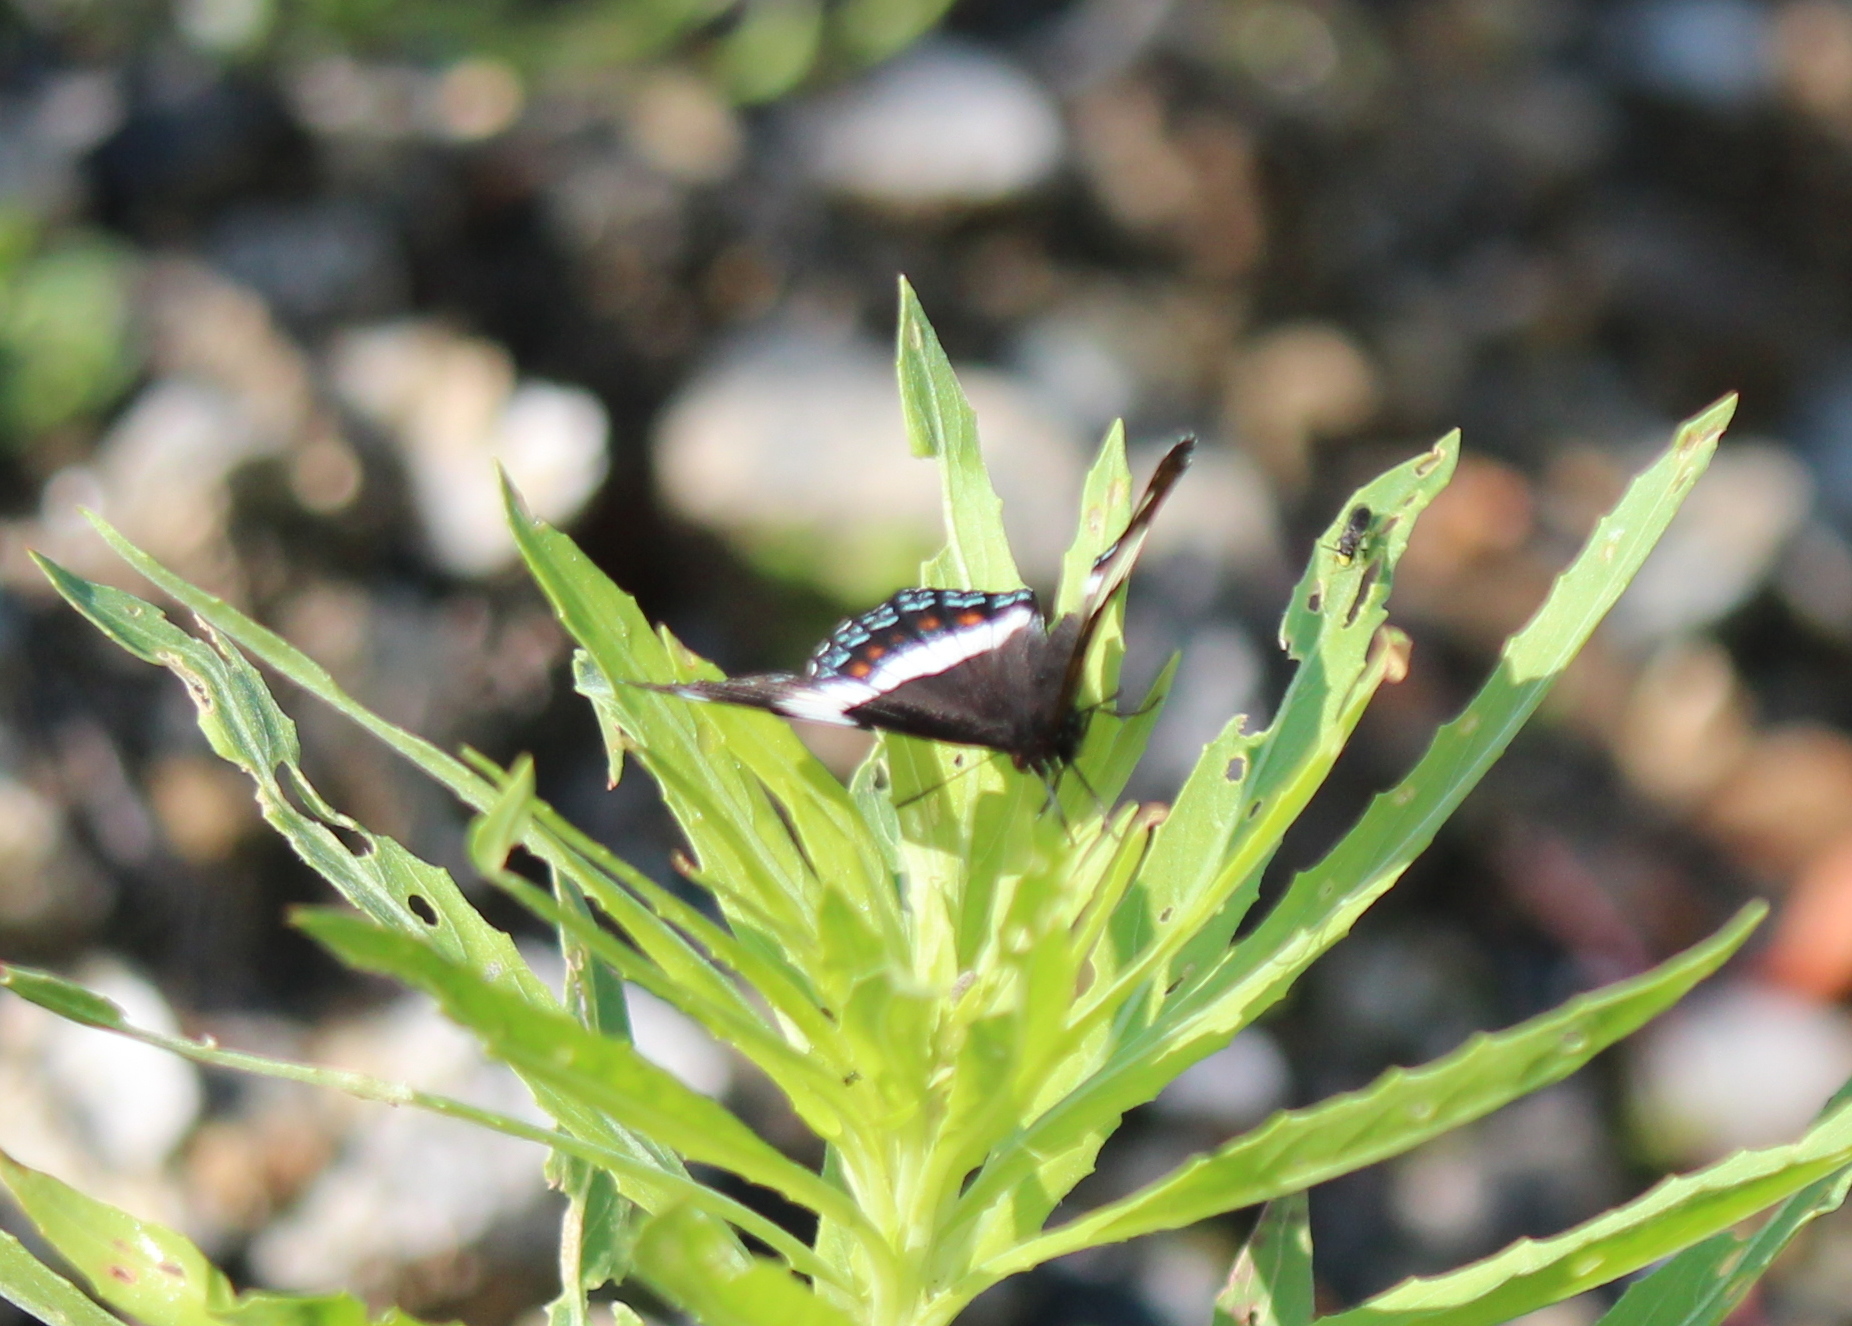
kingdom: Animalia
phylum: Arthropoda
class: Insecta
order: Lepidoptera
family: Nymphalidae
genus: Limenitis
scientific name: Limenitis arthemis
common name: Red-spotted admiral
